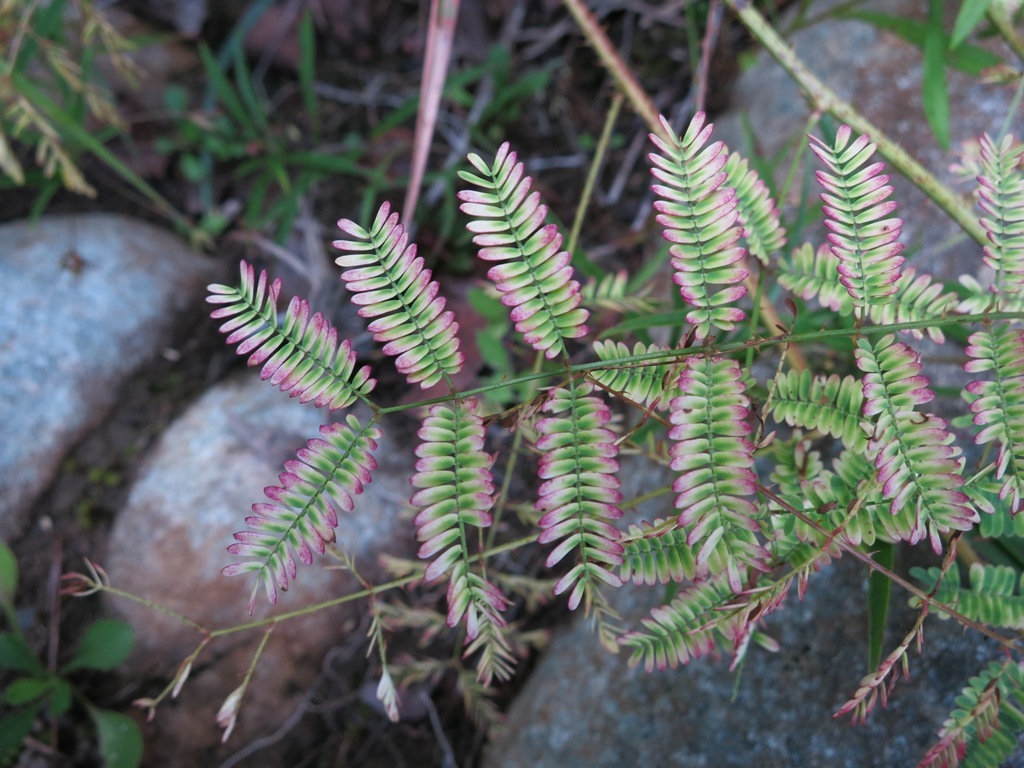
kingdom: Plantae
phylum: Tracheophyta
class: Magnoliopsida
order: Fabales
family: Fabaceae
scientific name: Fabaceae
